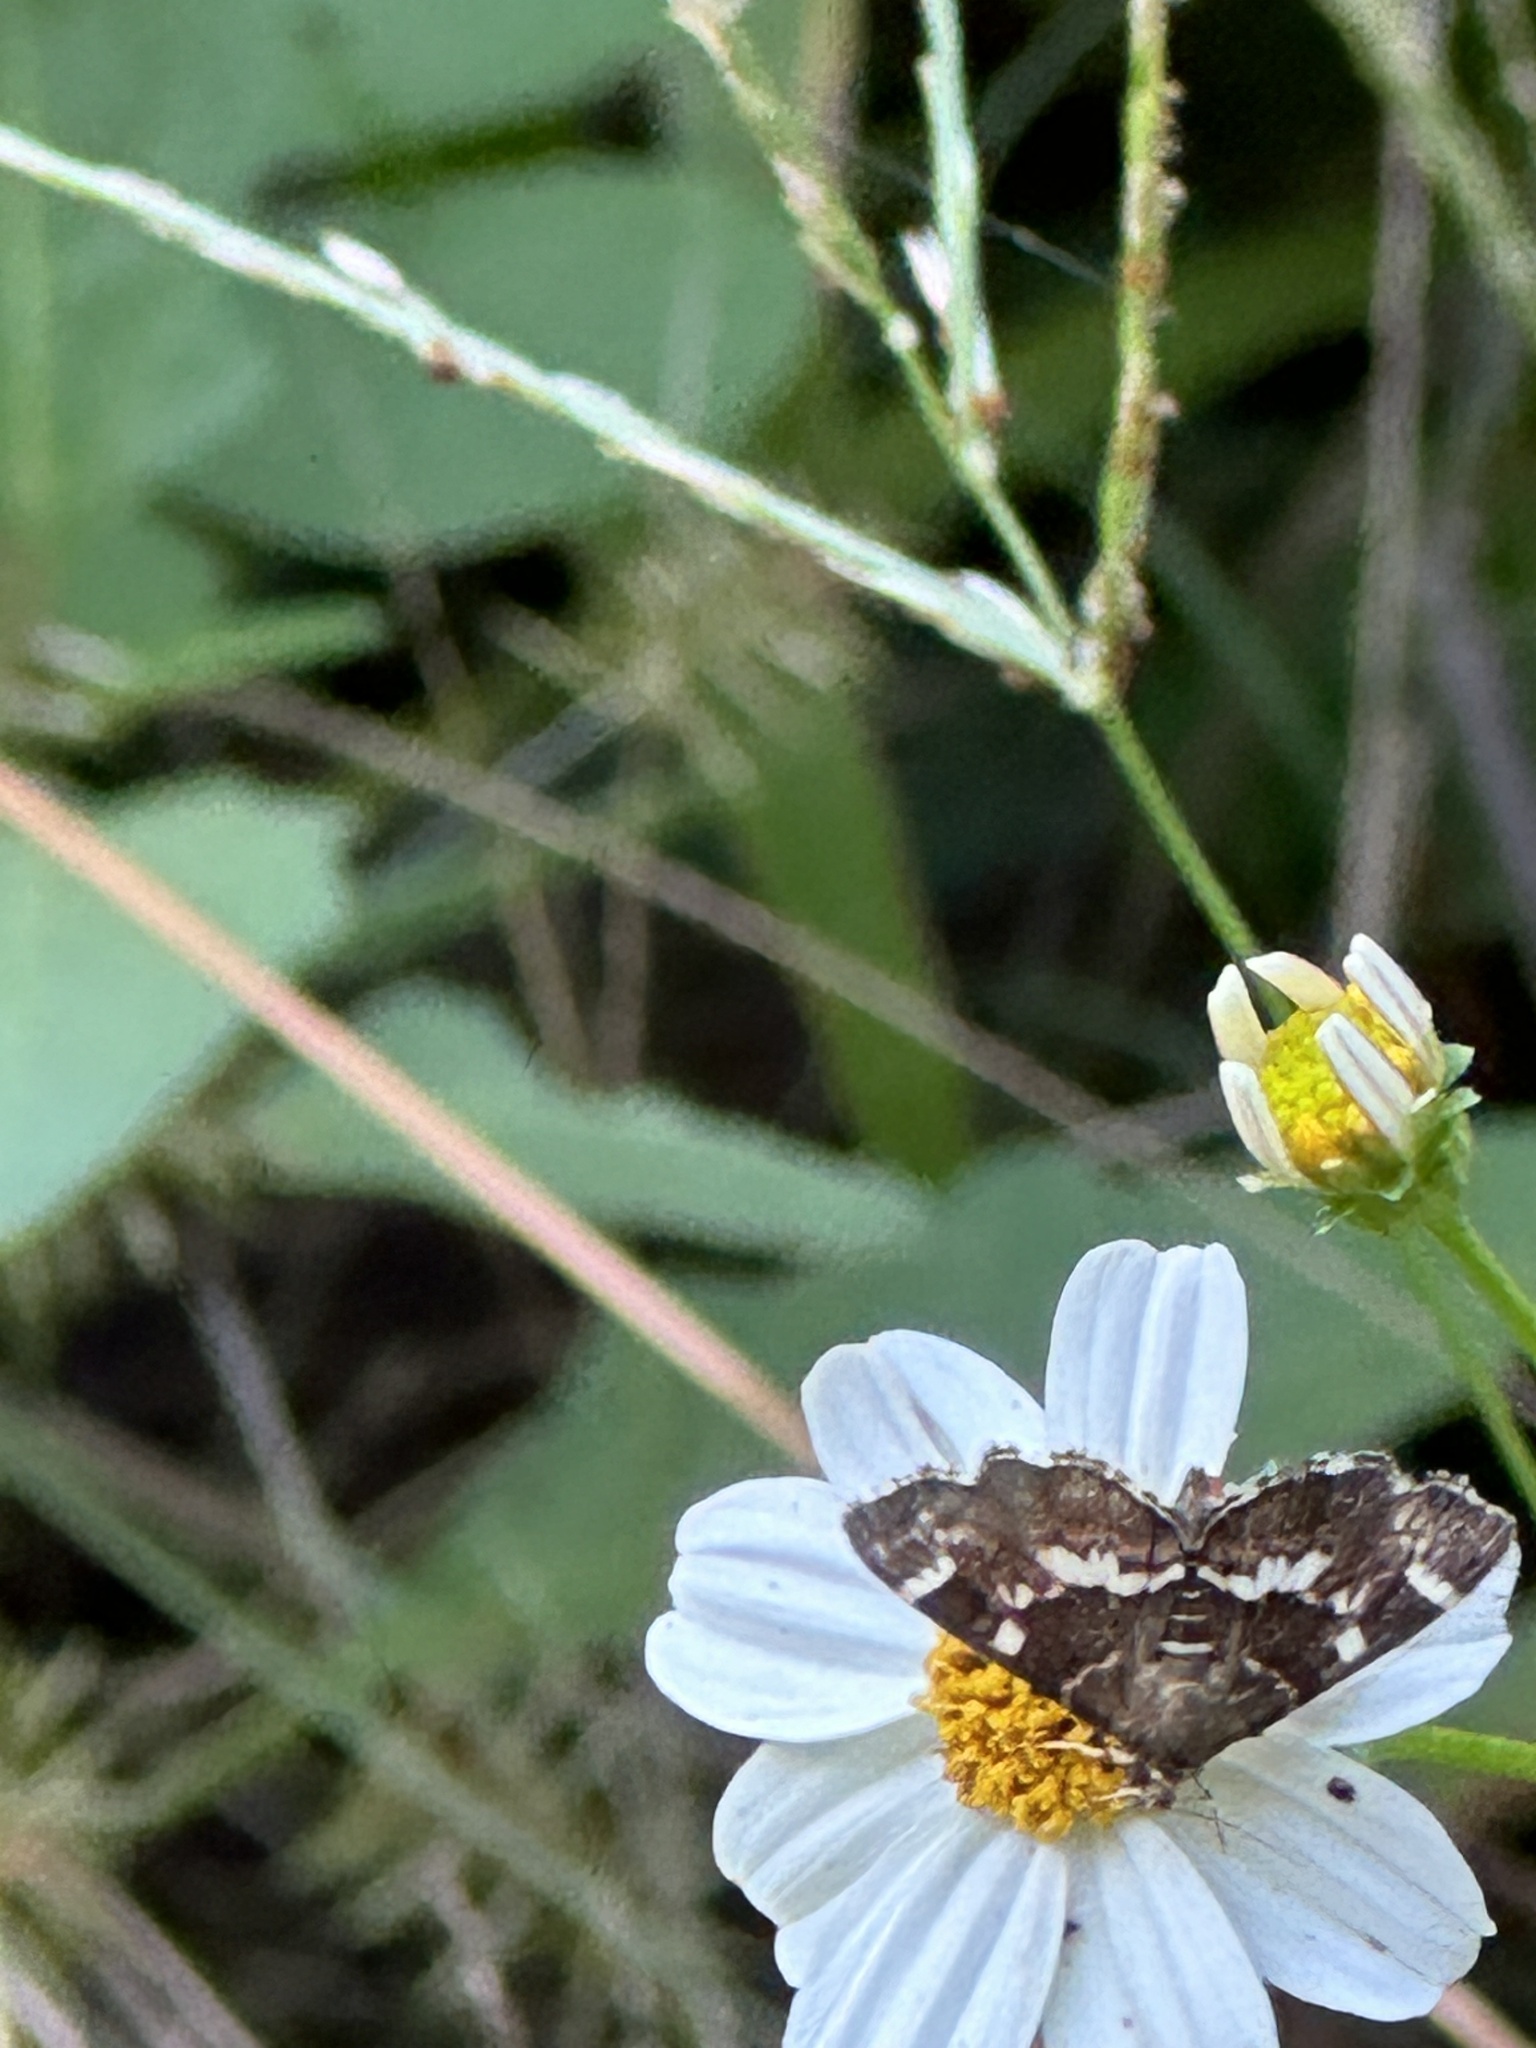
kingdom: Animalia
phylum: Arthropoda
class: Insecta
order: Lepidoptera
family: Crambidae
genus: Hymenia
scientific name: Hymenia perspectalis
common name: Spotted beet webworm
